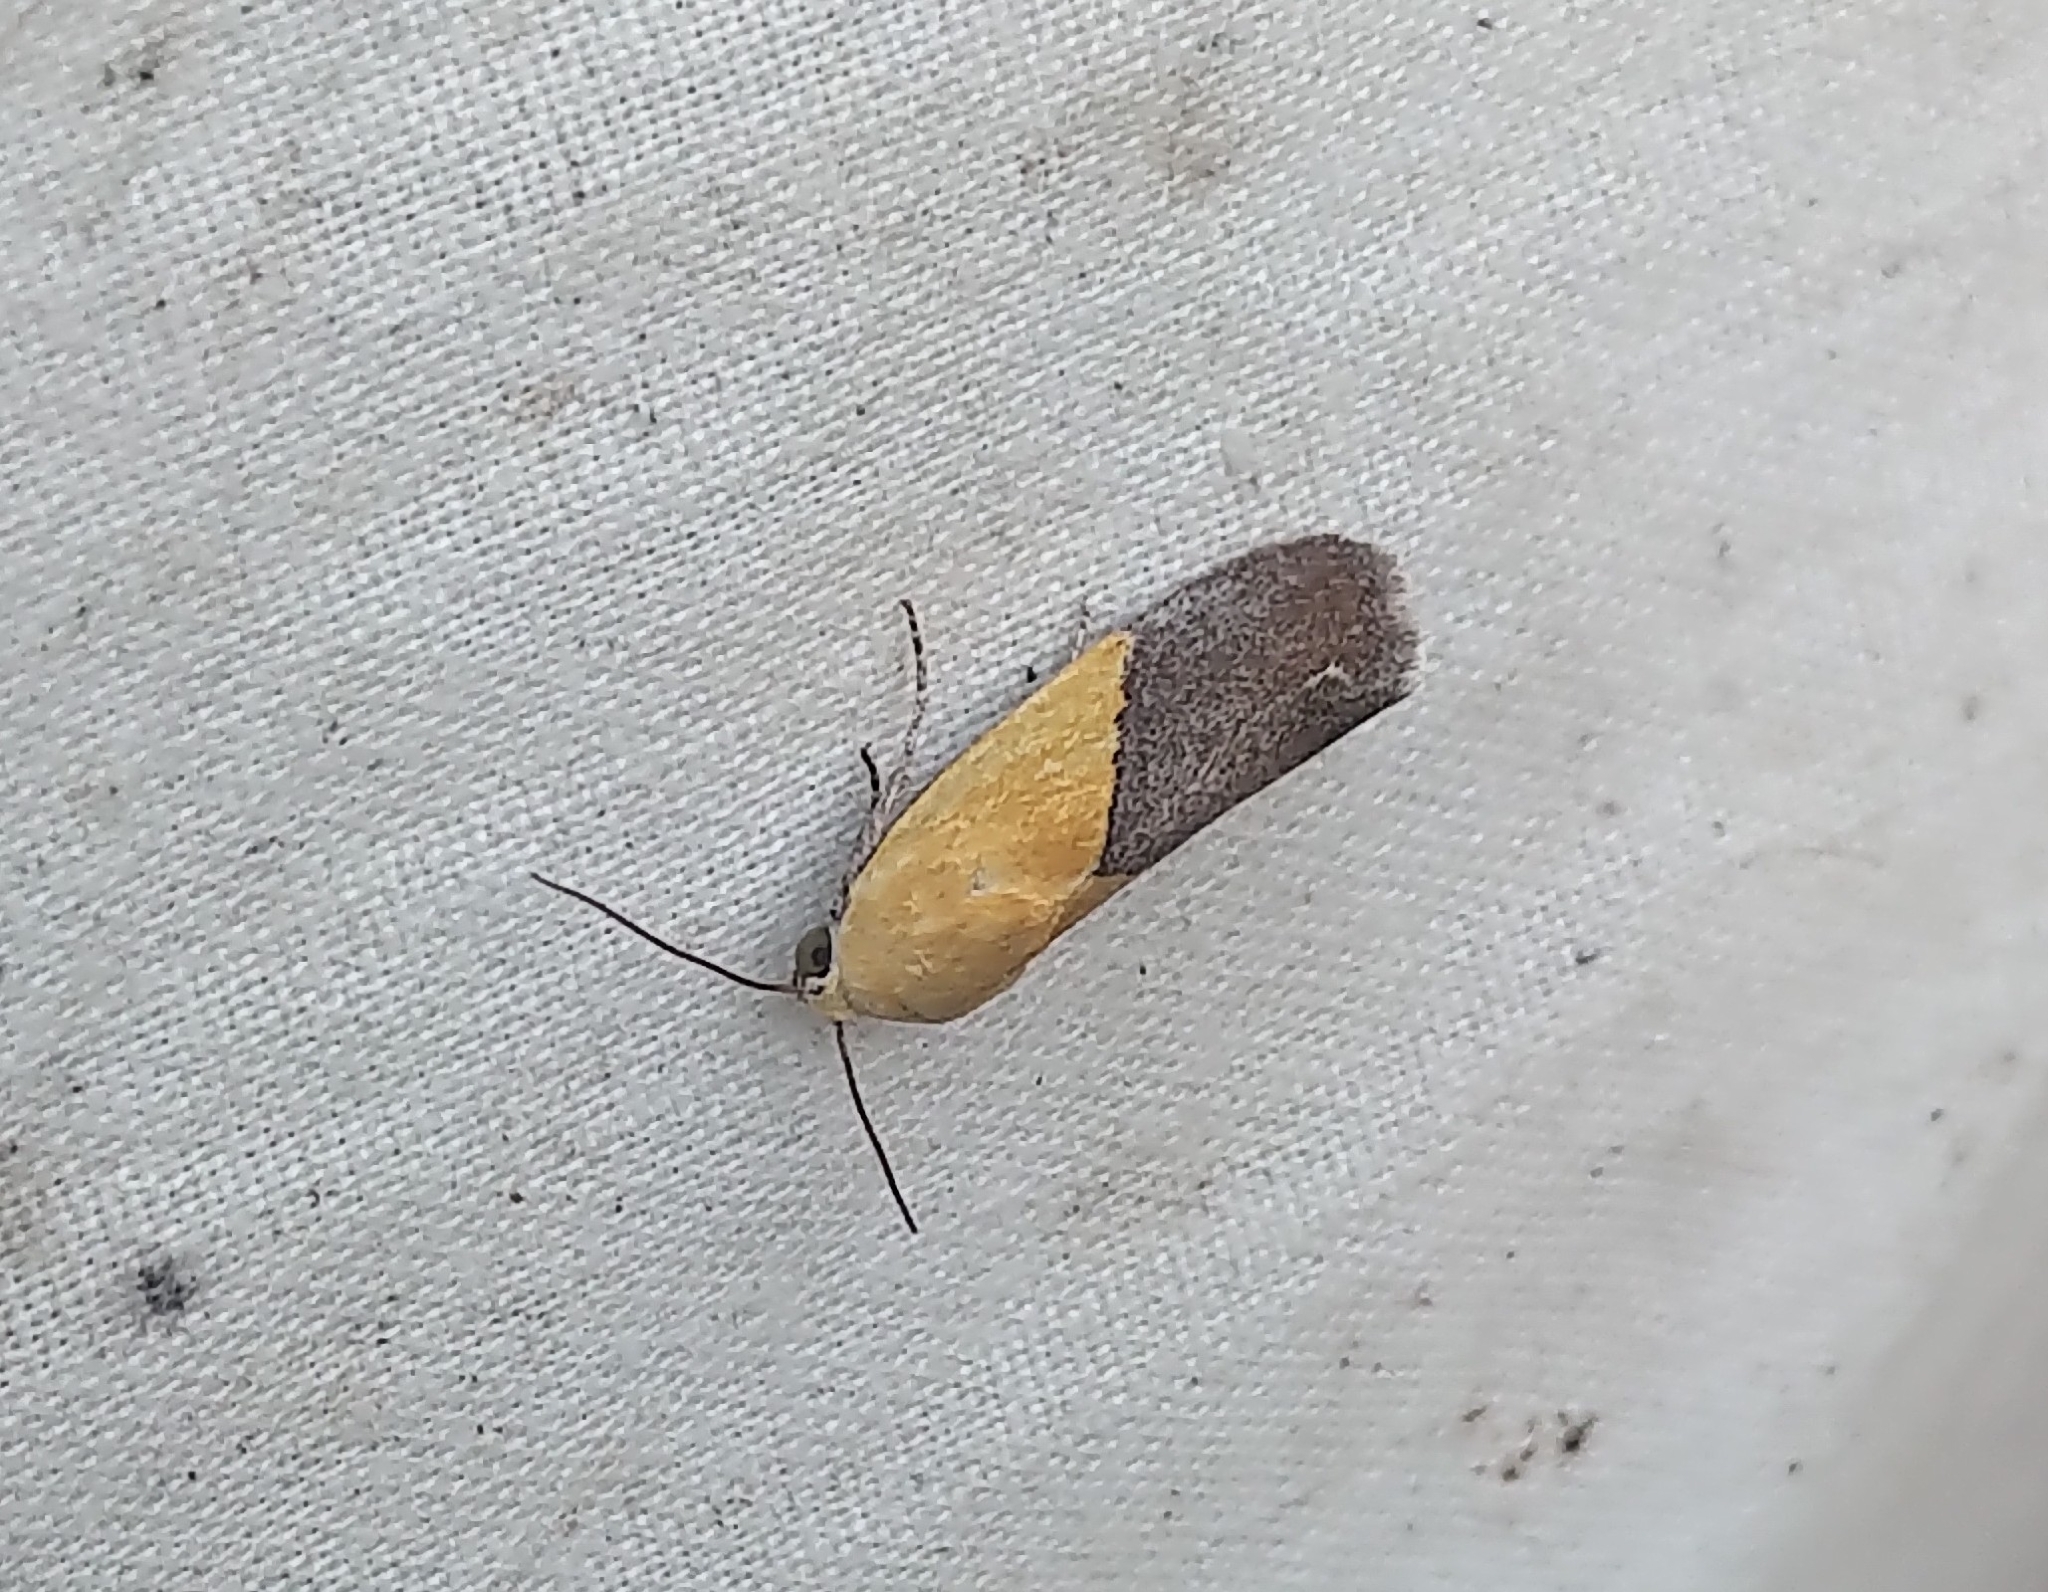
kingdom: Animalia
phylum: Arthropoda
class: Insecta
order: Lepidoptera
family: Noctuidae
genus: Acontia
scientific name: Acontia semiflava
